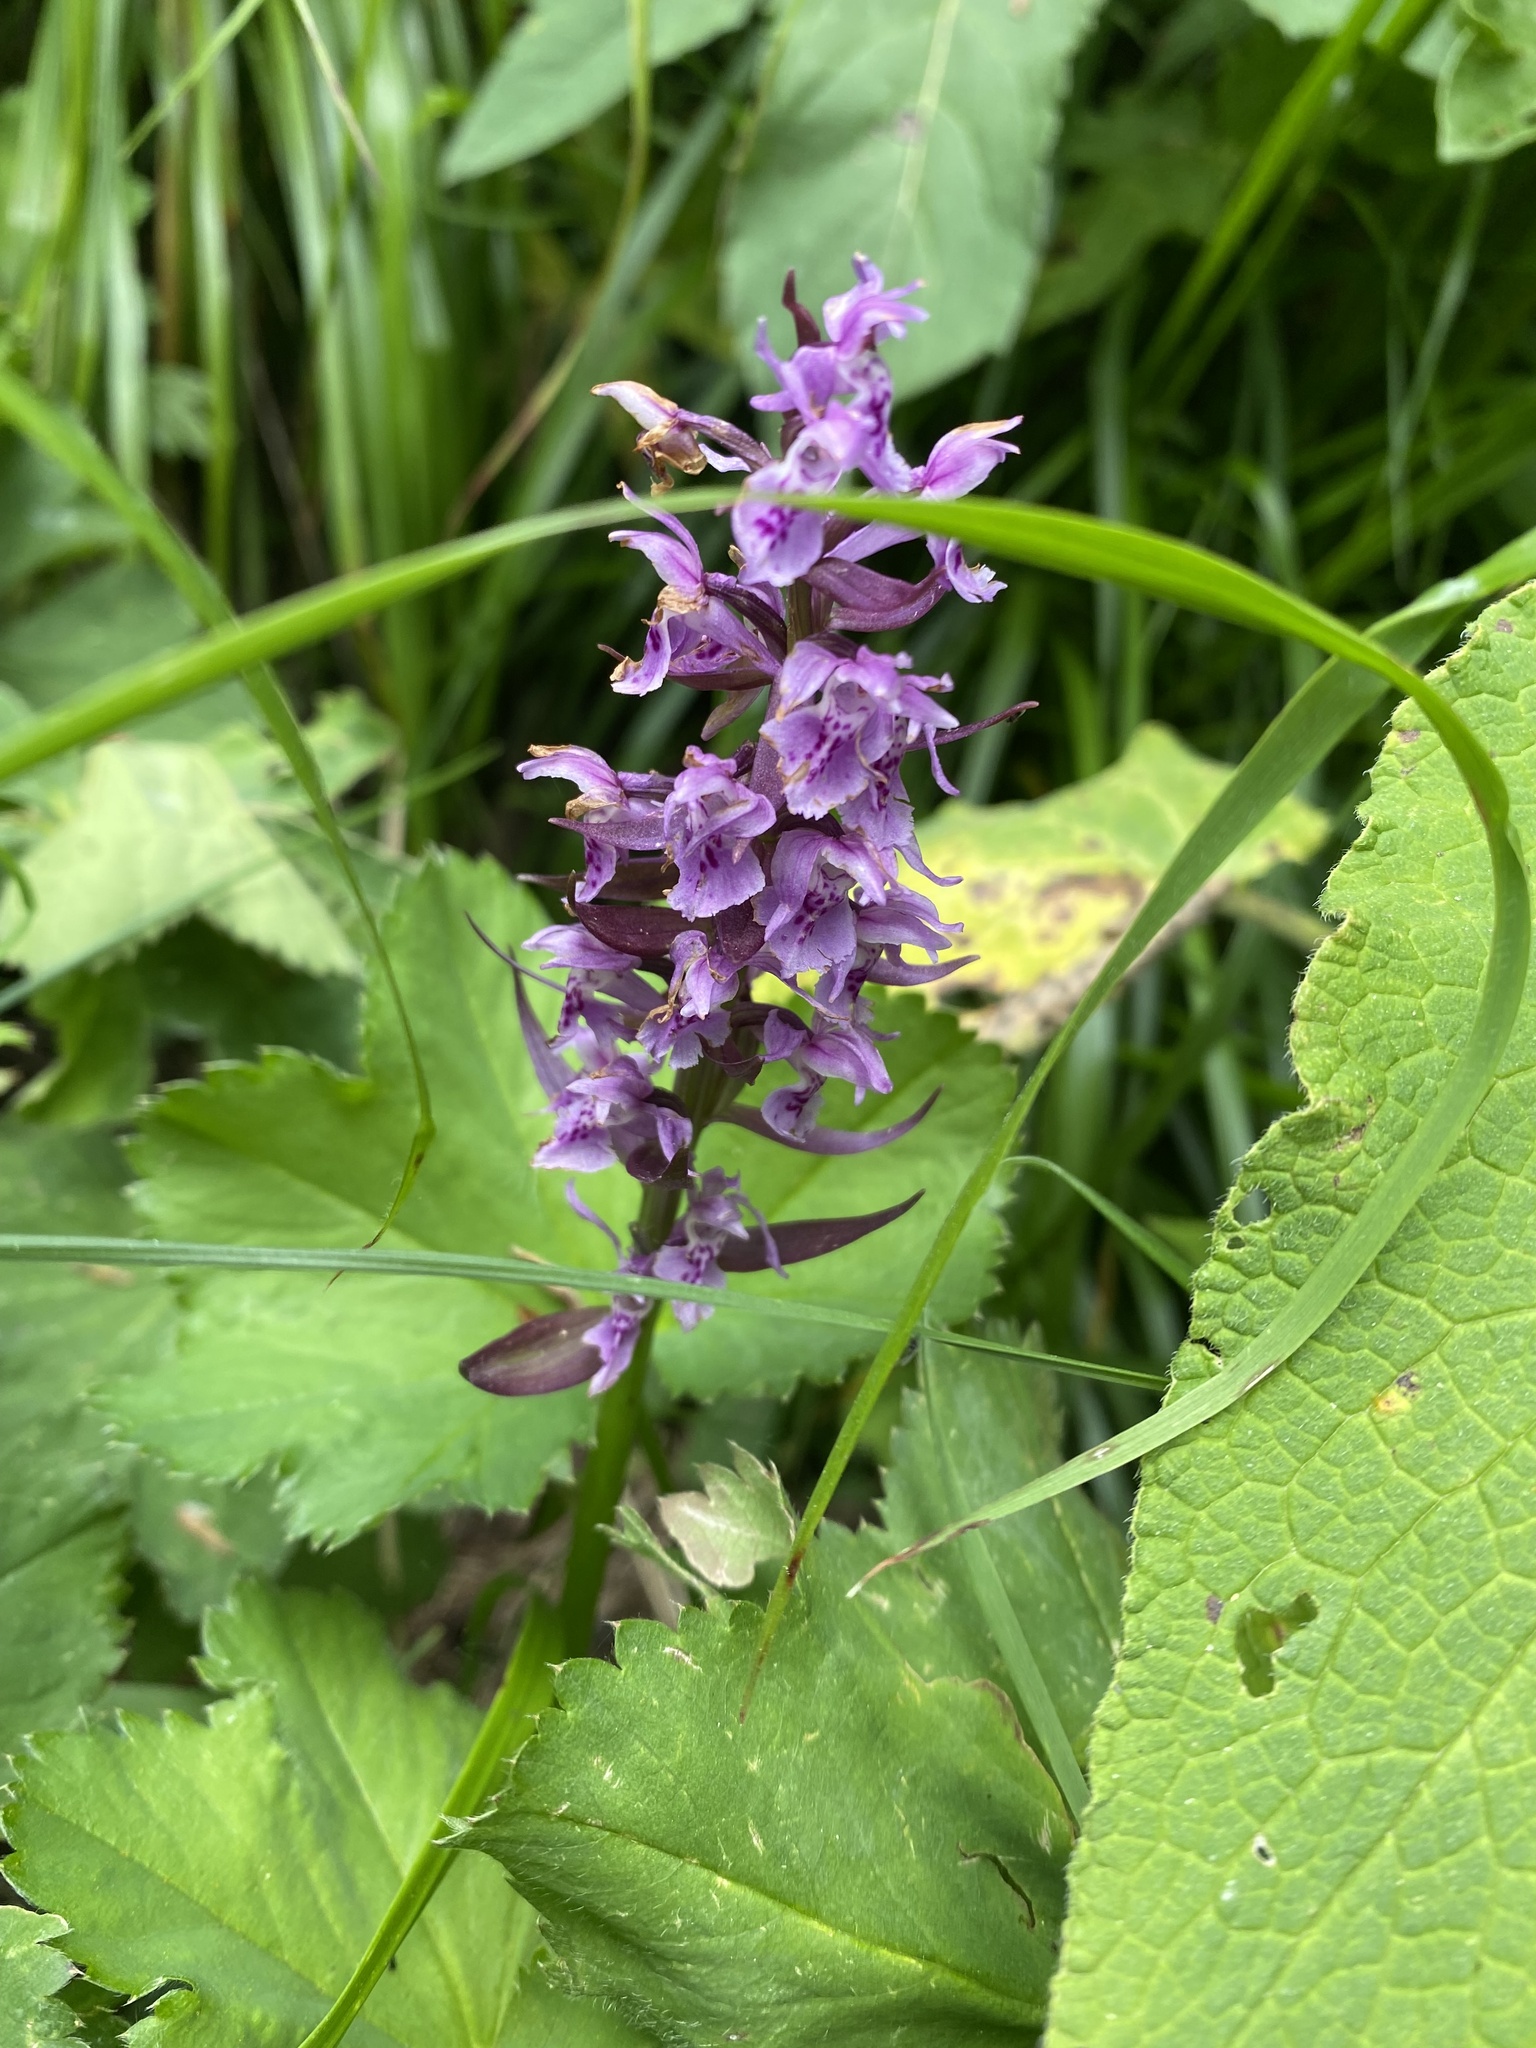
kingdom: Plantae
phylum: Tracheophyta
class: Liliopsida
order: Asparagales
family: Orchidaceae
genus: Dactylorhiza
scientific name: Dactylorhiza euxina
